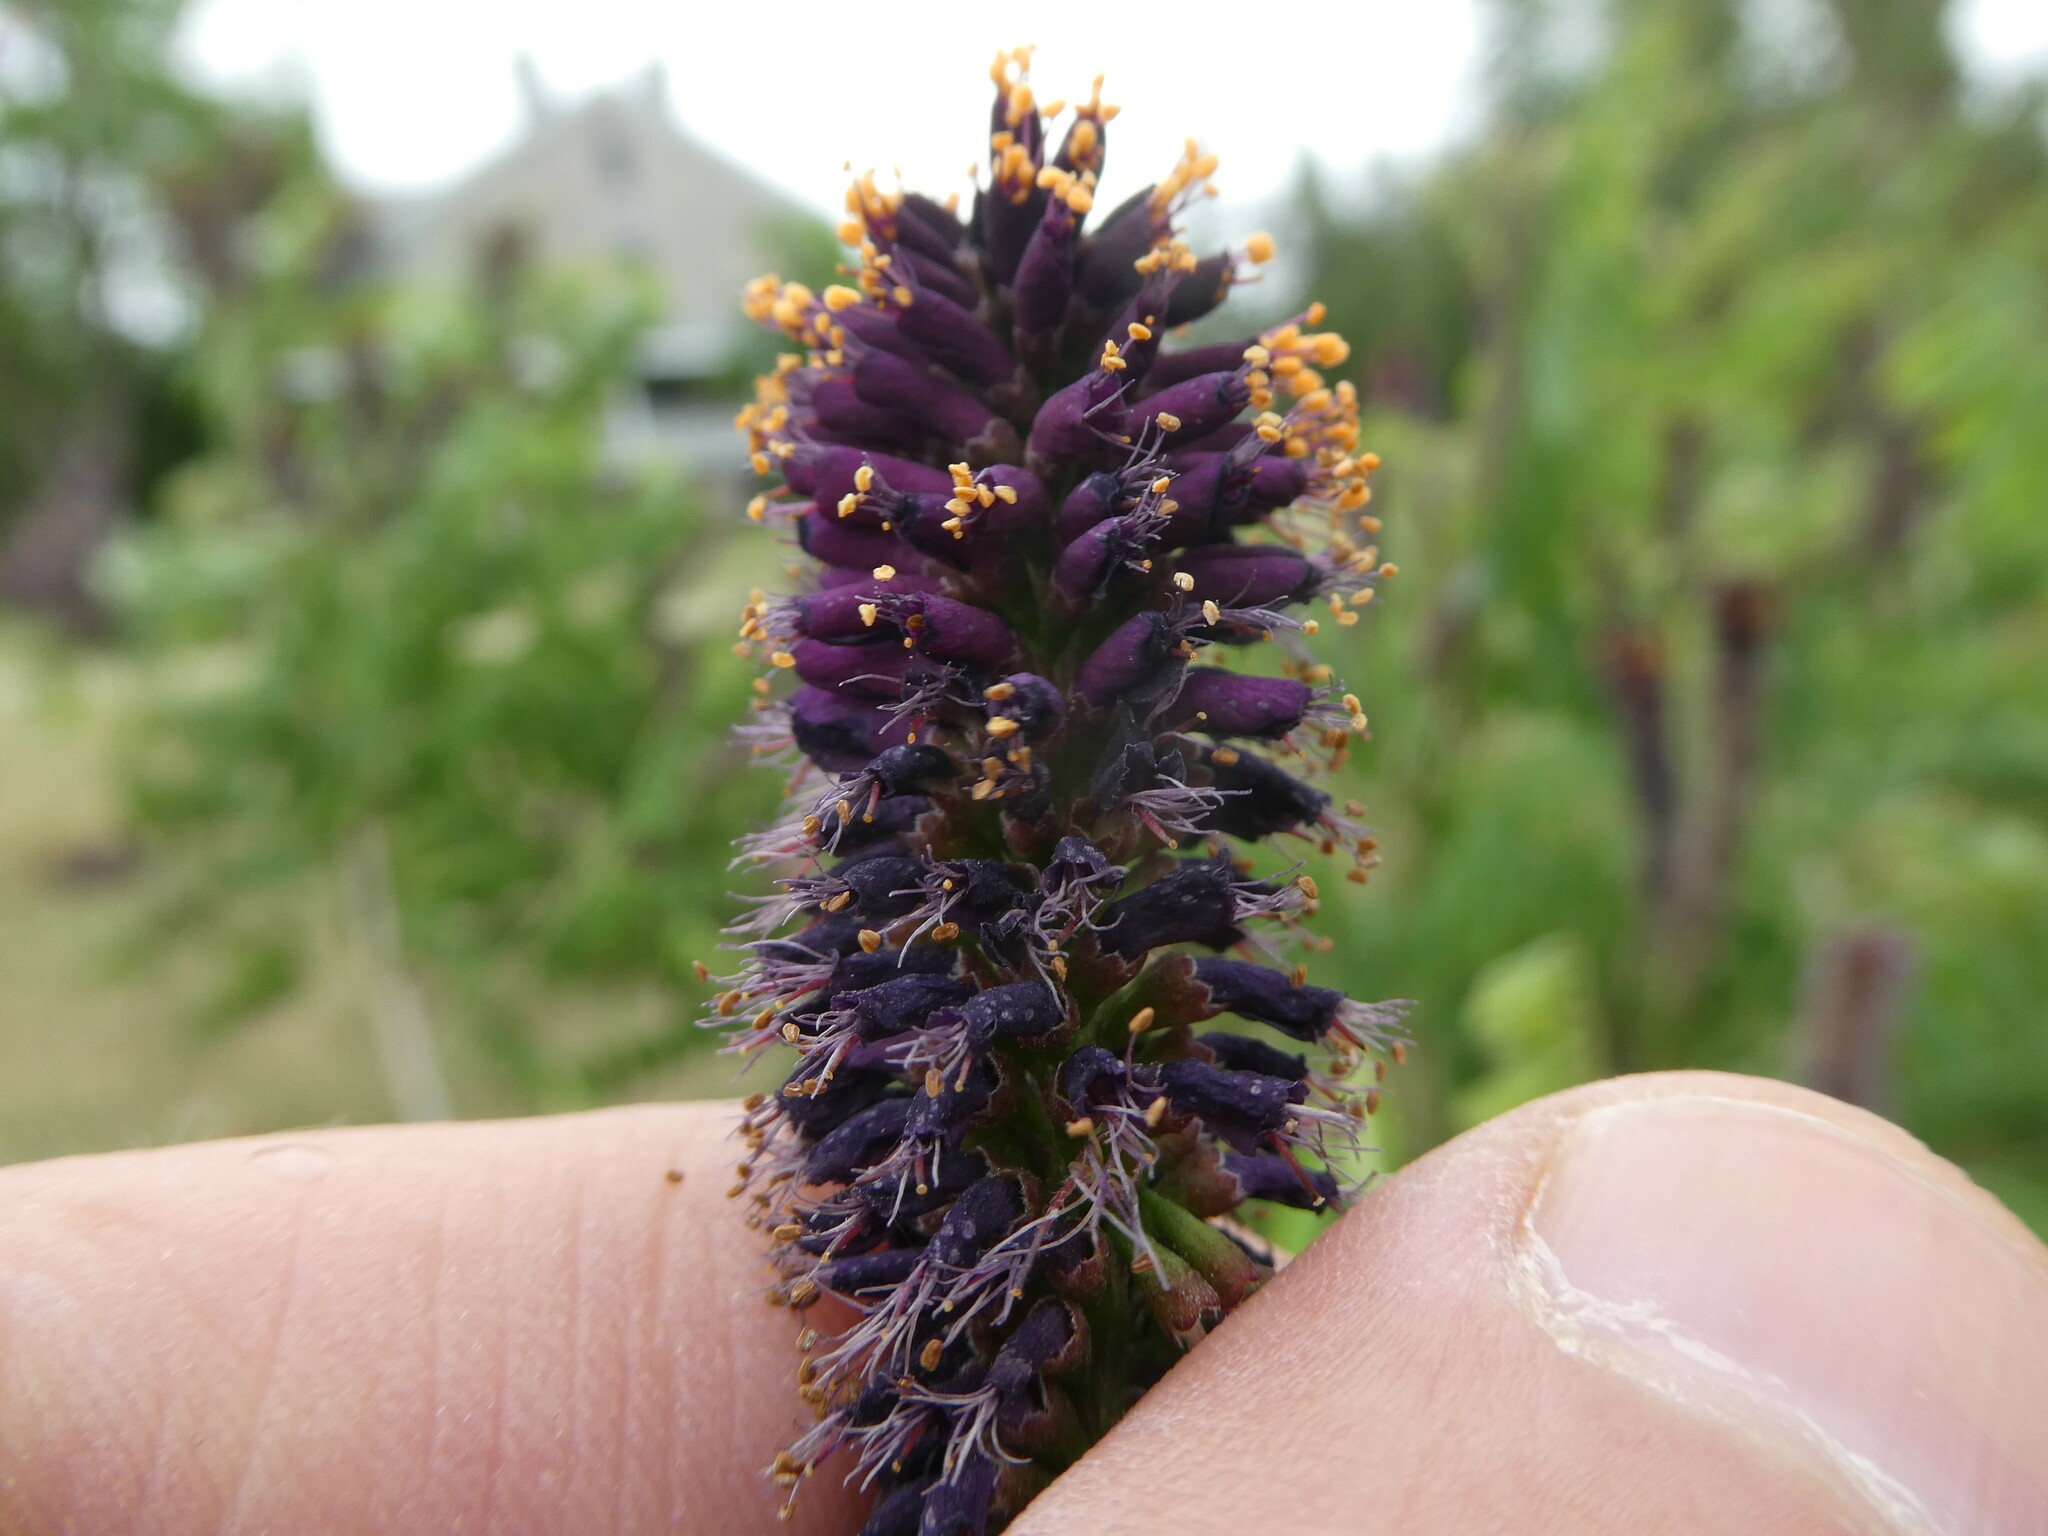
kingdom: Plantae
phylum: Tracheophyta
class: Magnoliopsida
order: Fabales
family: Fabaceae
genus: Amorpha
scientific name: Amorpha fruticosa
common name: False indigo
